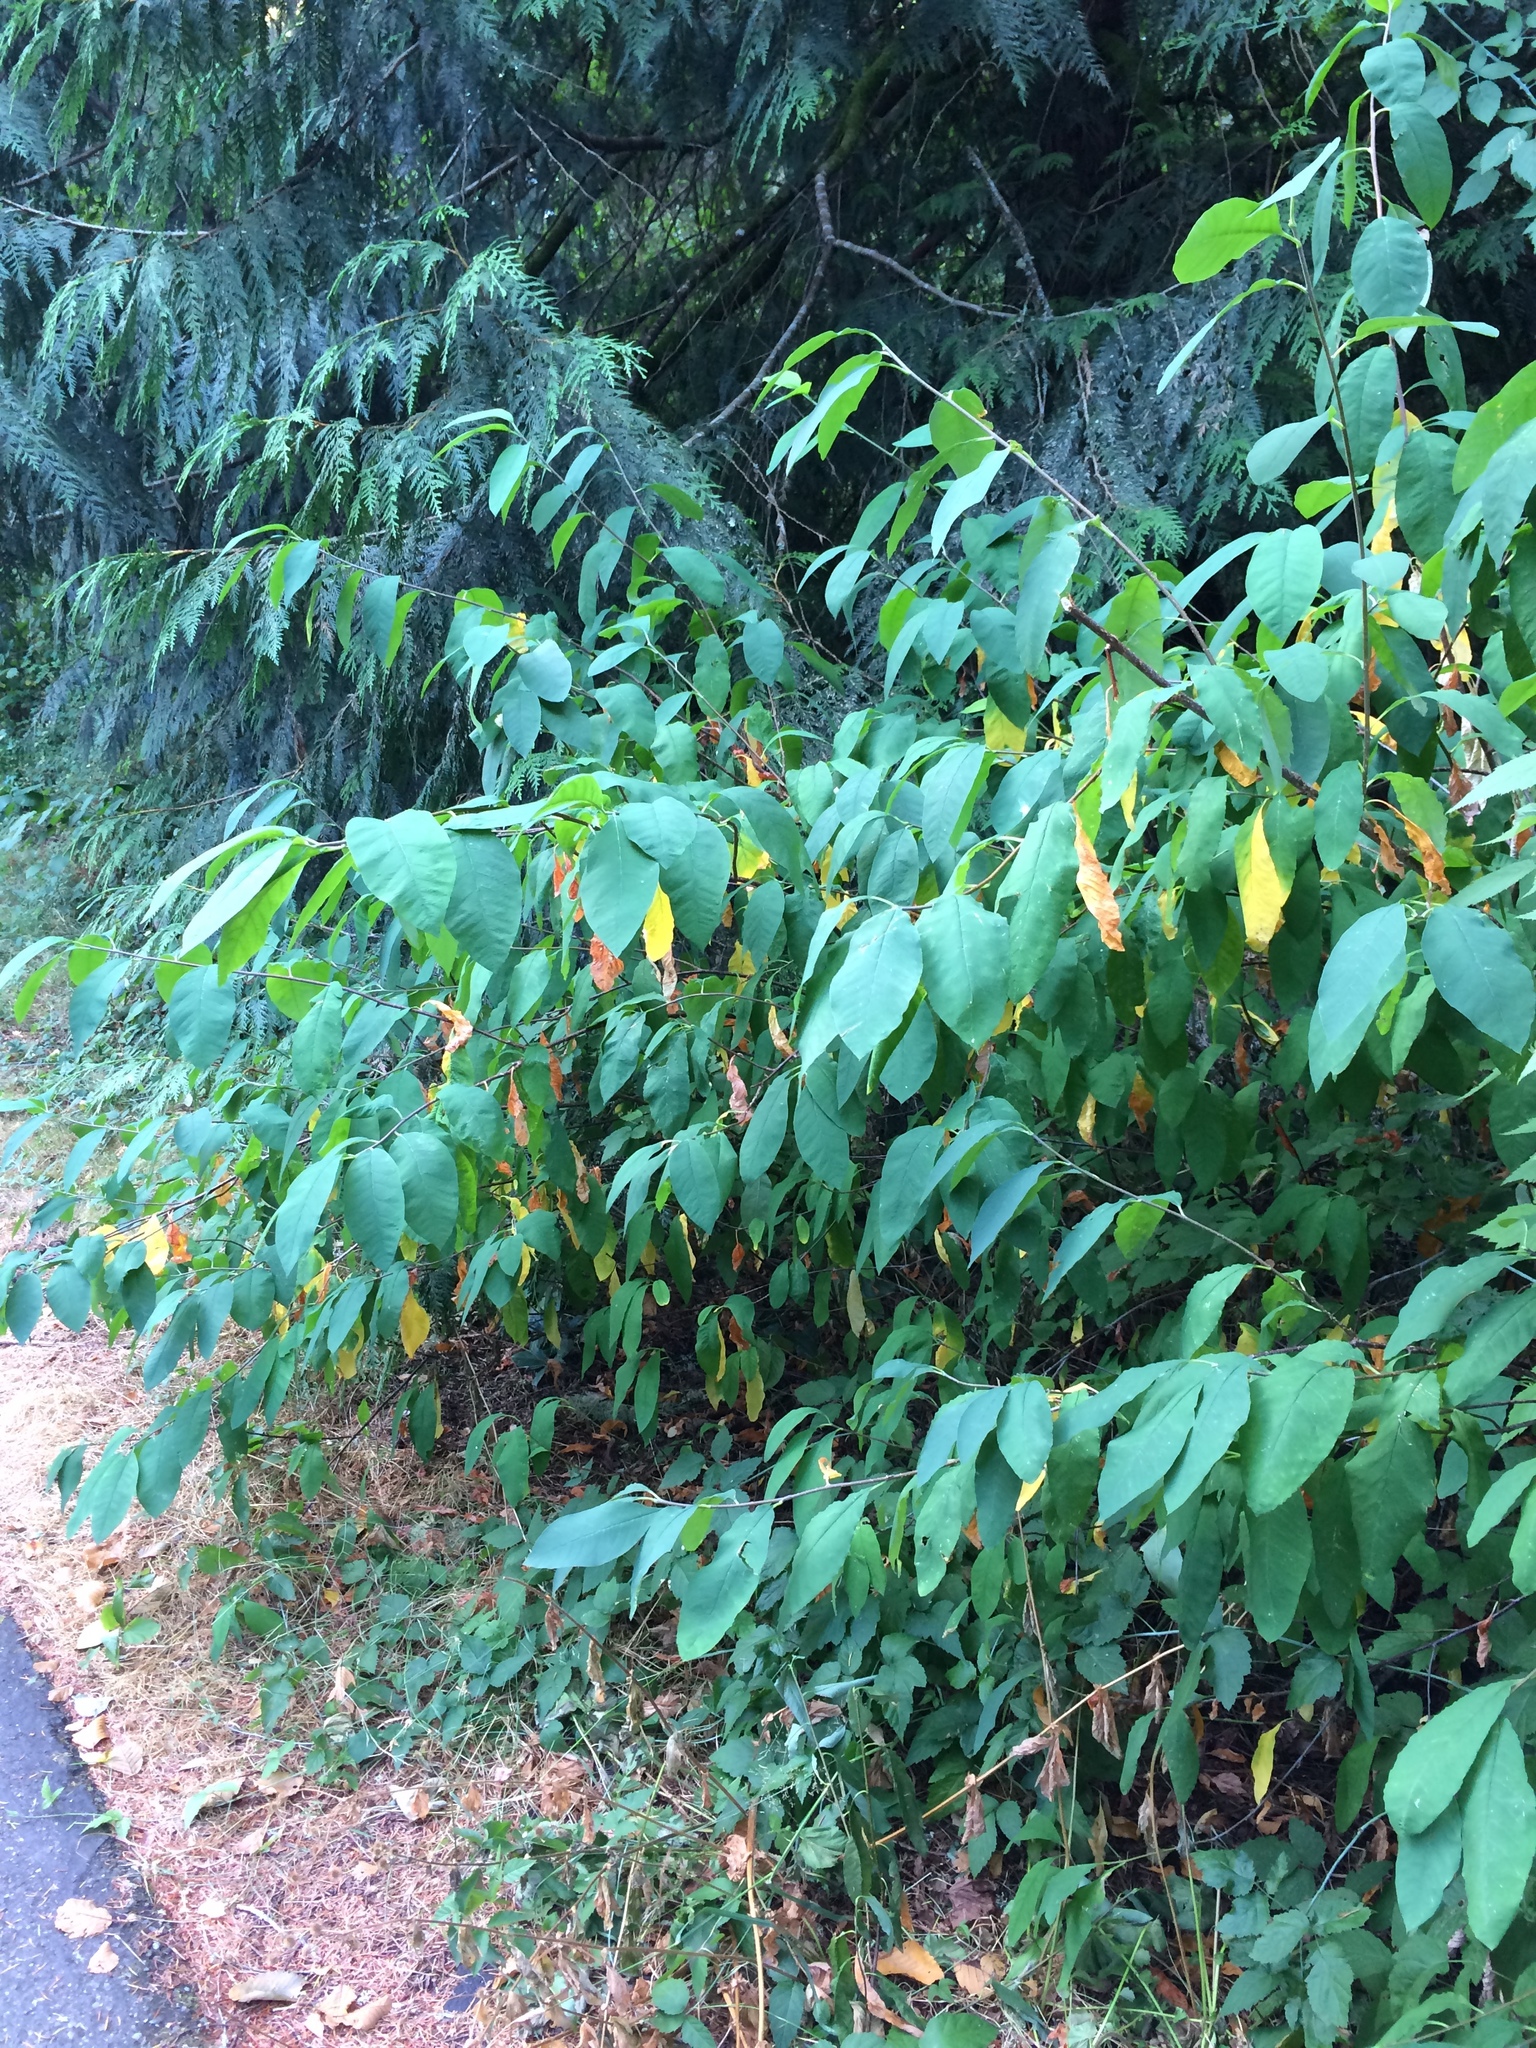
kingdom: Plantae
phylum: Tracheophyta
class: Magnoliopsida
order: Rosales
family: Rosaceae
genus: Oemleria
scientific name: Oemleria cerasiformis
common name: Osoberry
